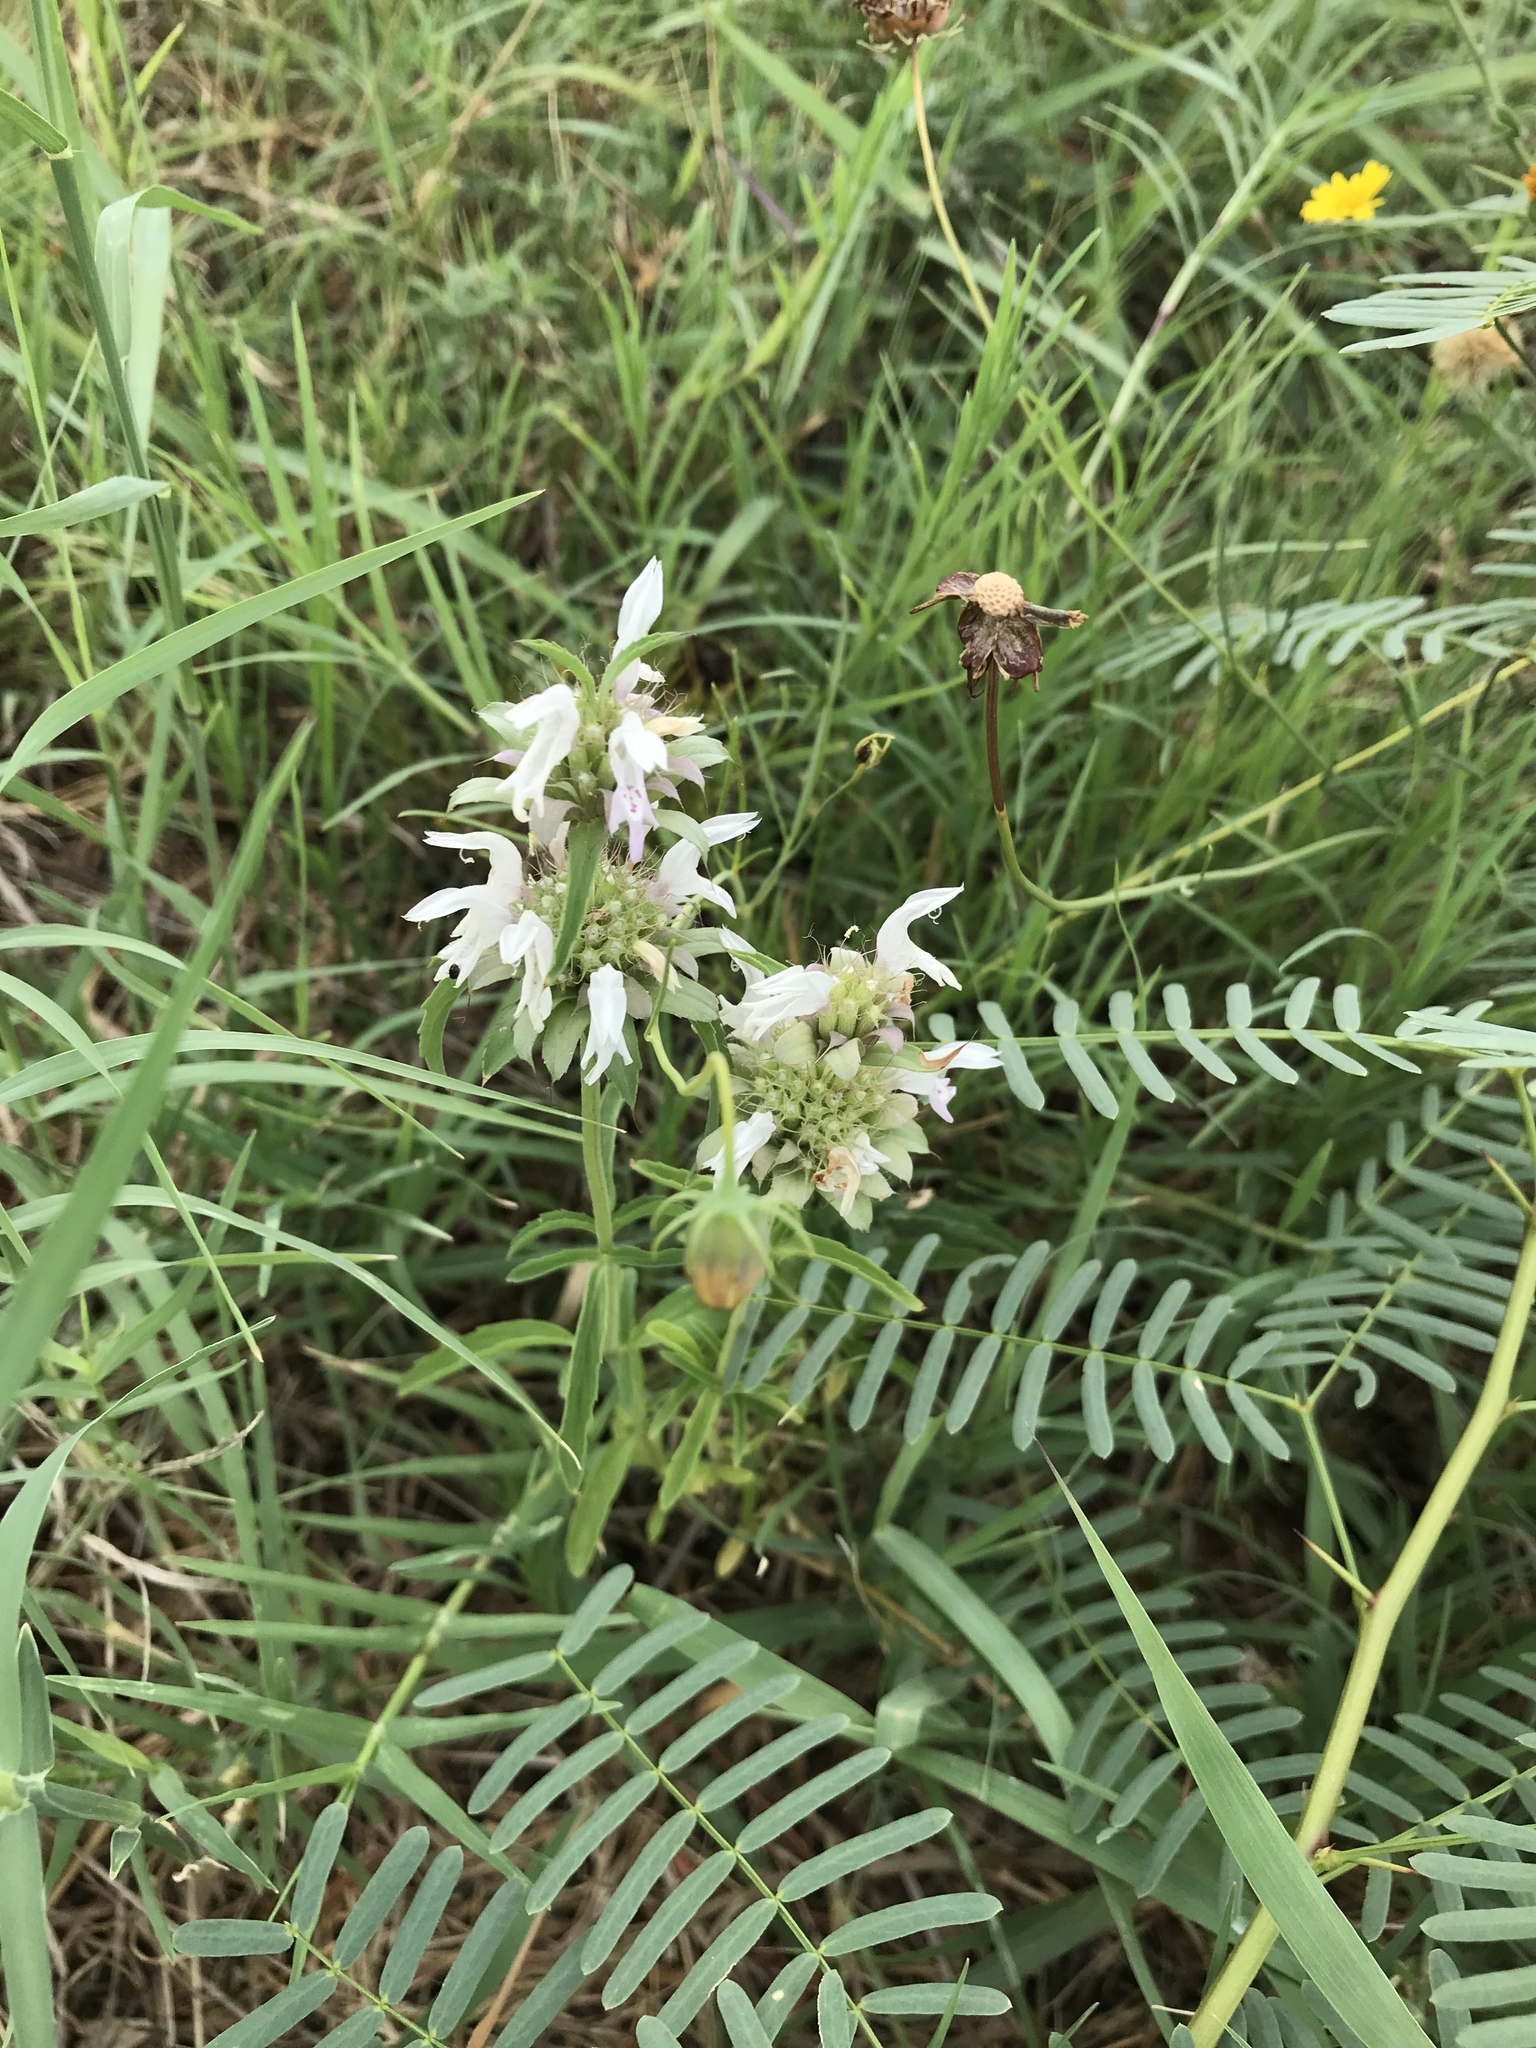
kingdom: Plantae
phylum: Tracheophyta
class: Magnoliopsida
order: Lamiales
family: Lamiaceae
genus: Monarda
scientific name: Monarda citriodora
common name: Lemon beebalm
